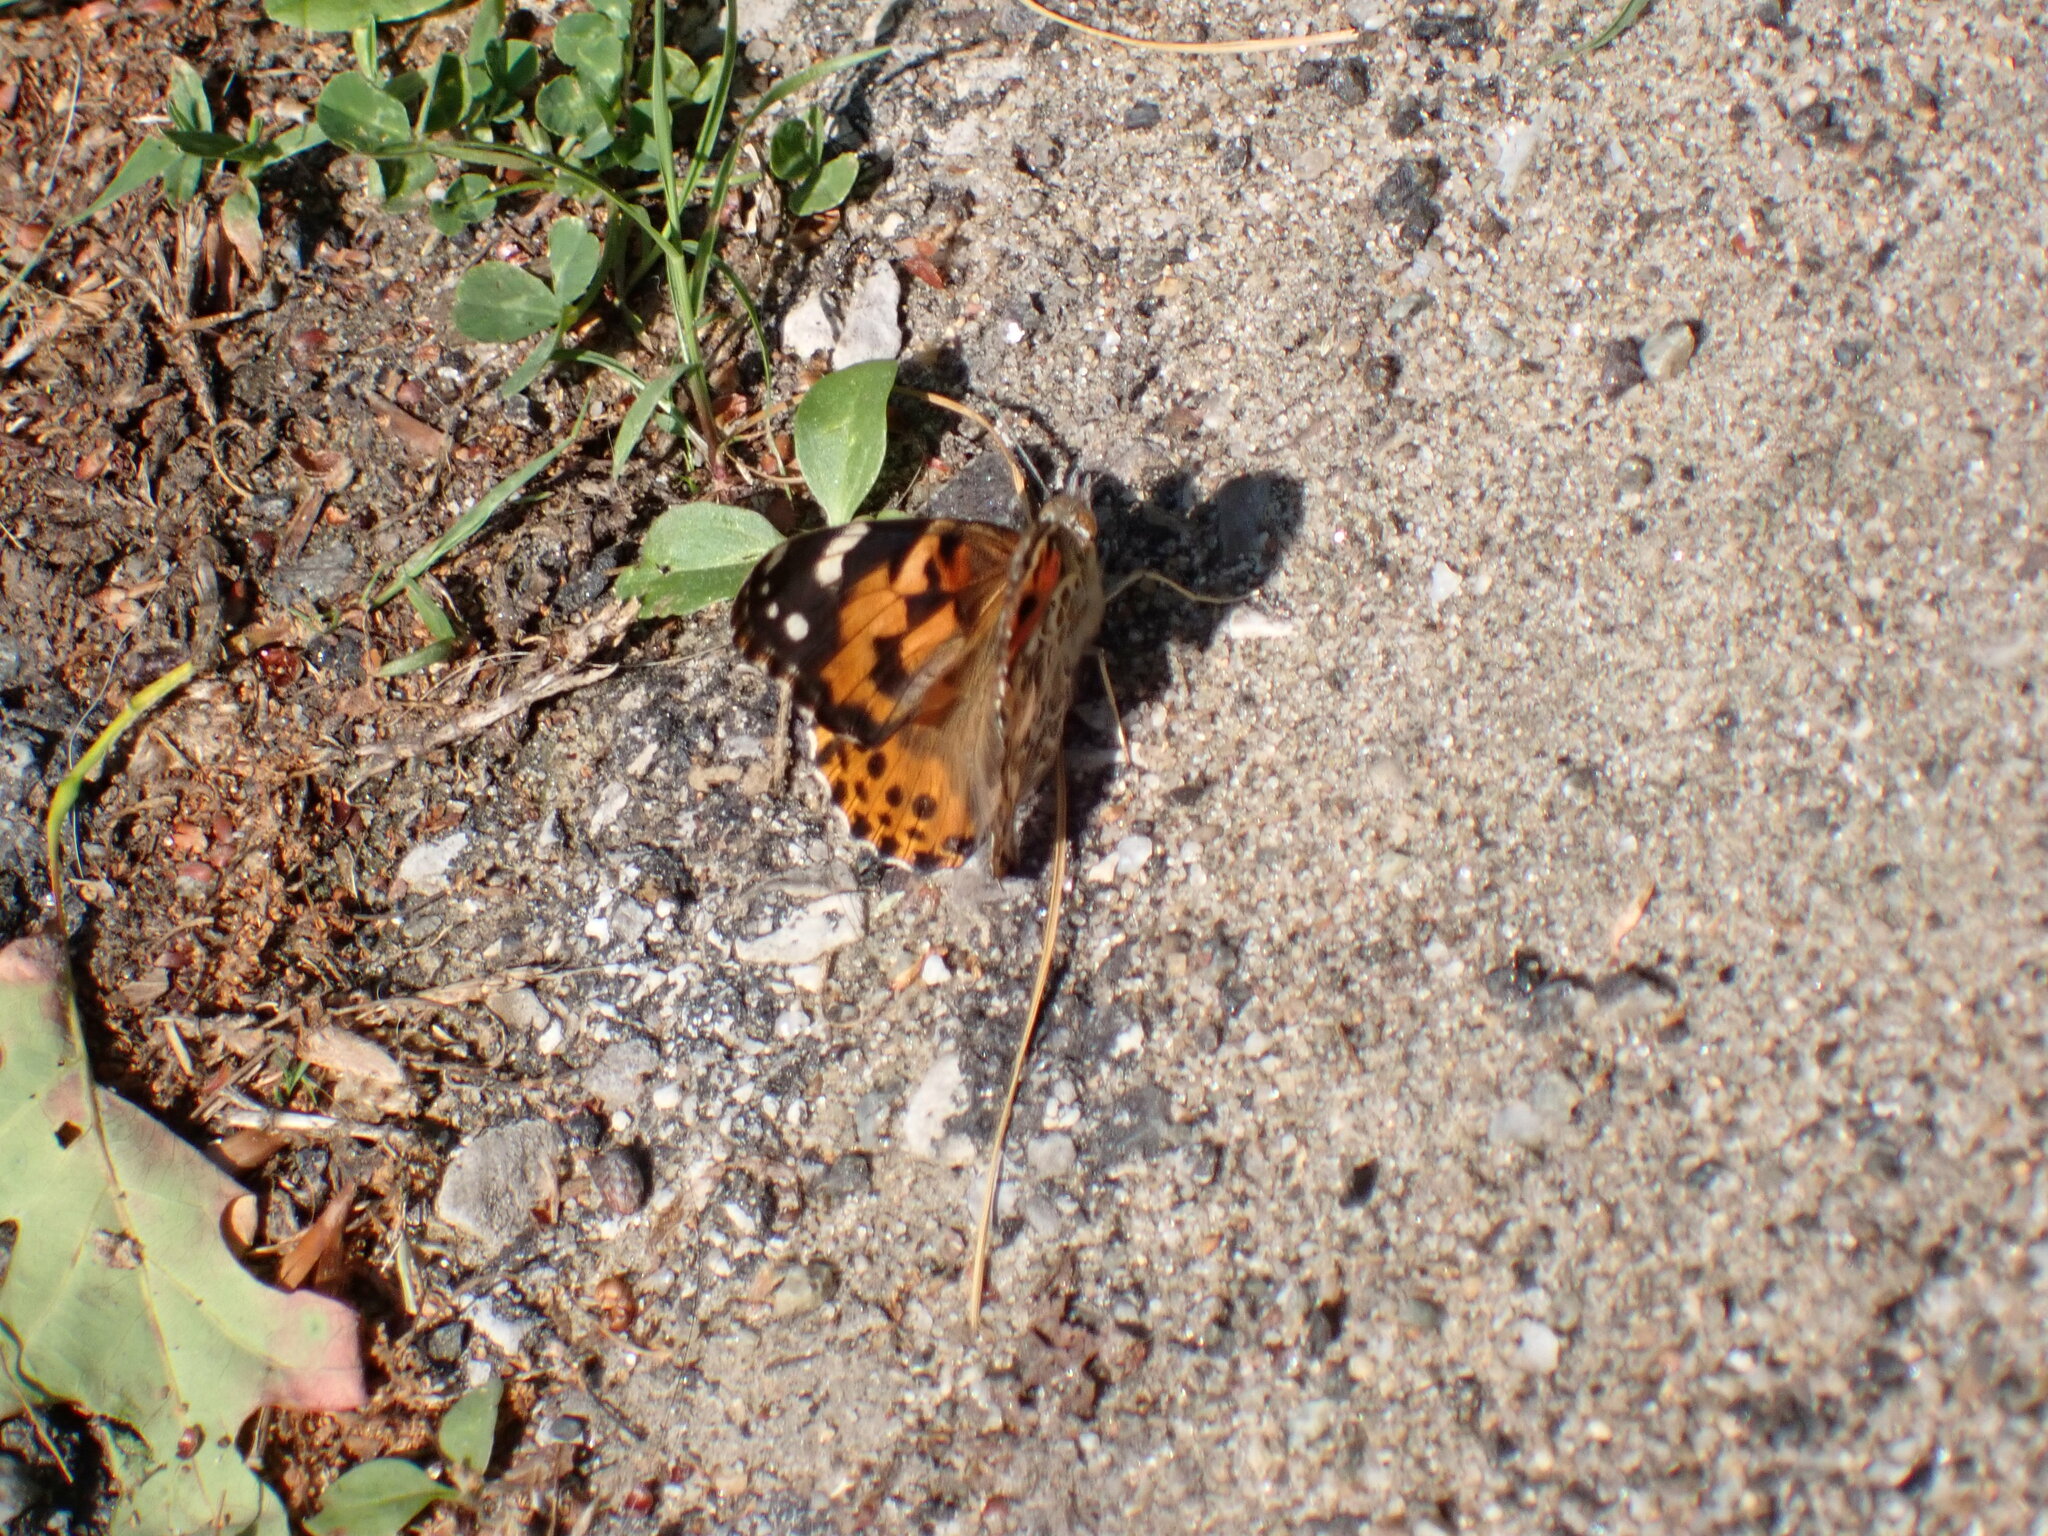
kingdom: Animalia
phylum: Arthropoda
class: Insecta
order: Lepidoptera
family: Nymphalidae
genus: Vanessa
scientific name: Vanessa cardui
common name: Painted lady
